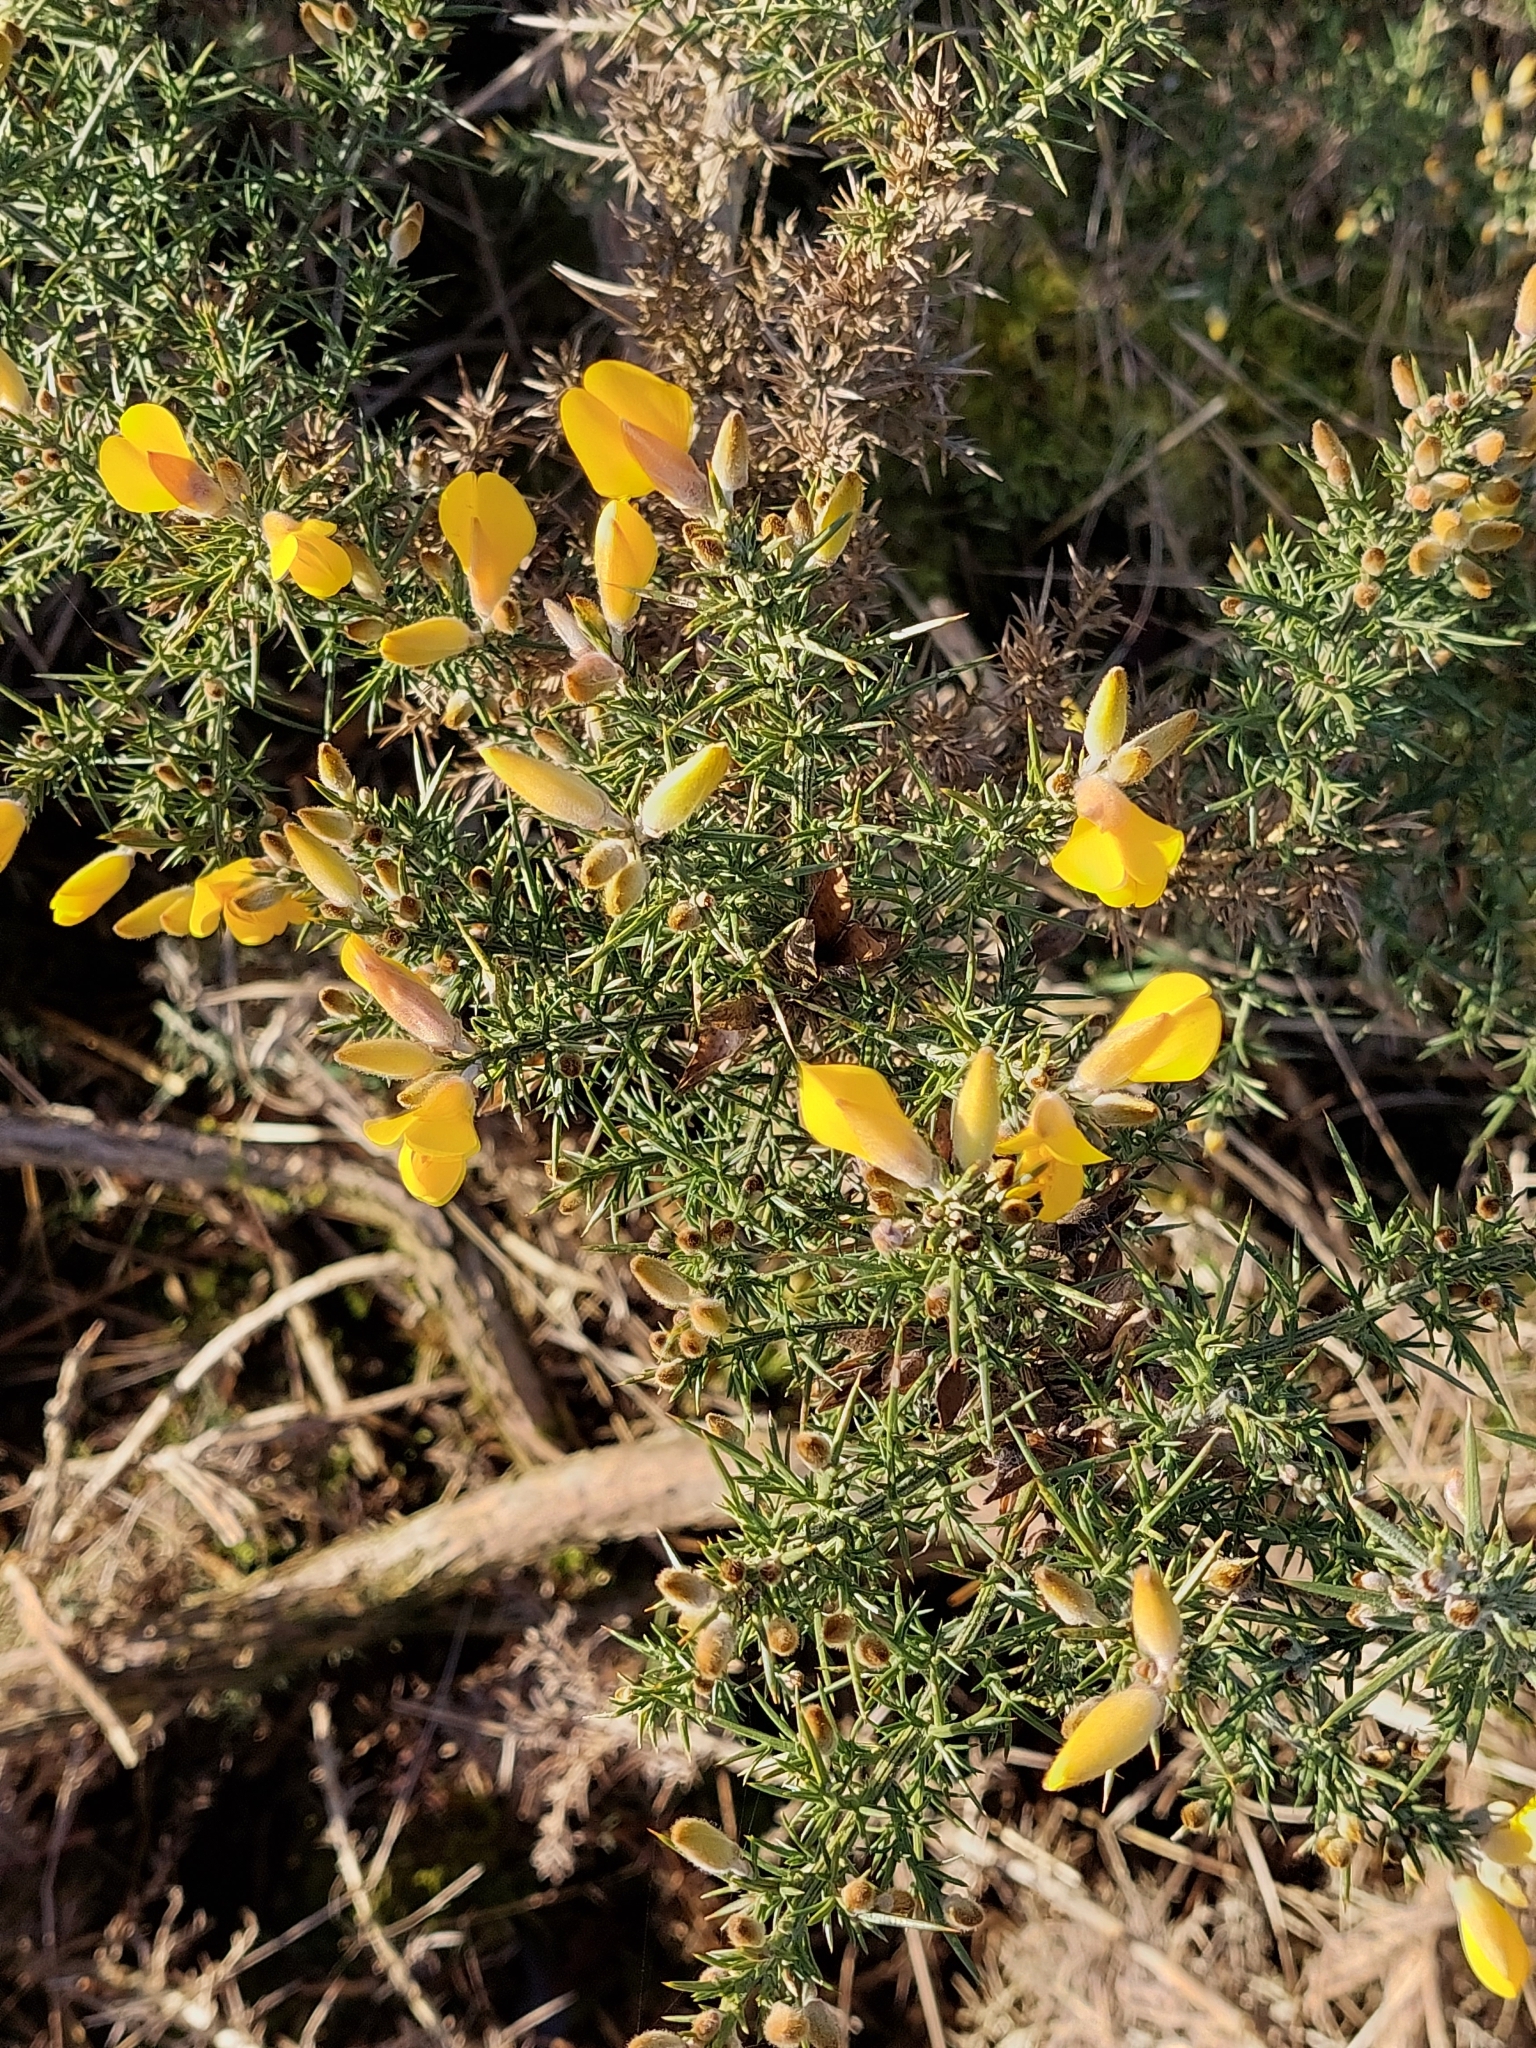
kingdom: Plantae
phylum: Tracheophyta
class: Magnoliopsida
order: Fabales
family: Fabaceae
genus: Ulex
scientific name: Ulex europaeus
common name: Common gorse
